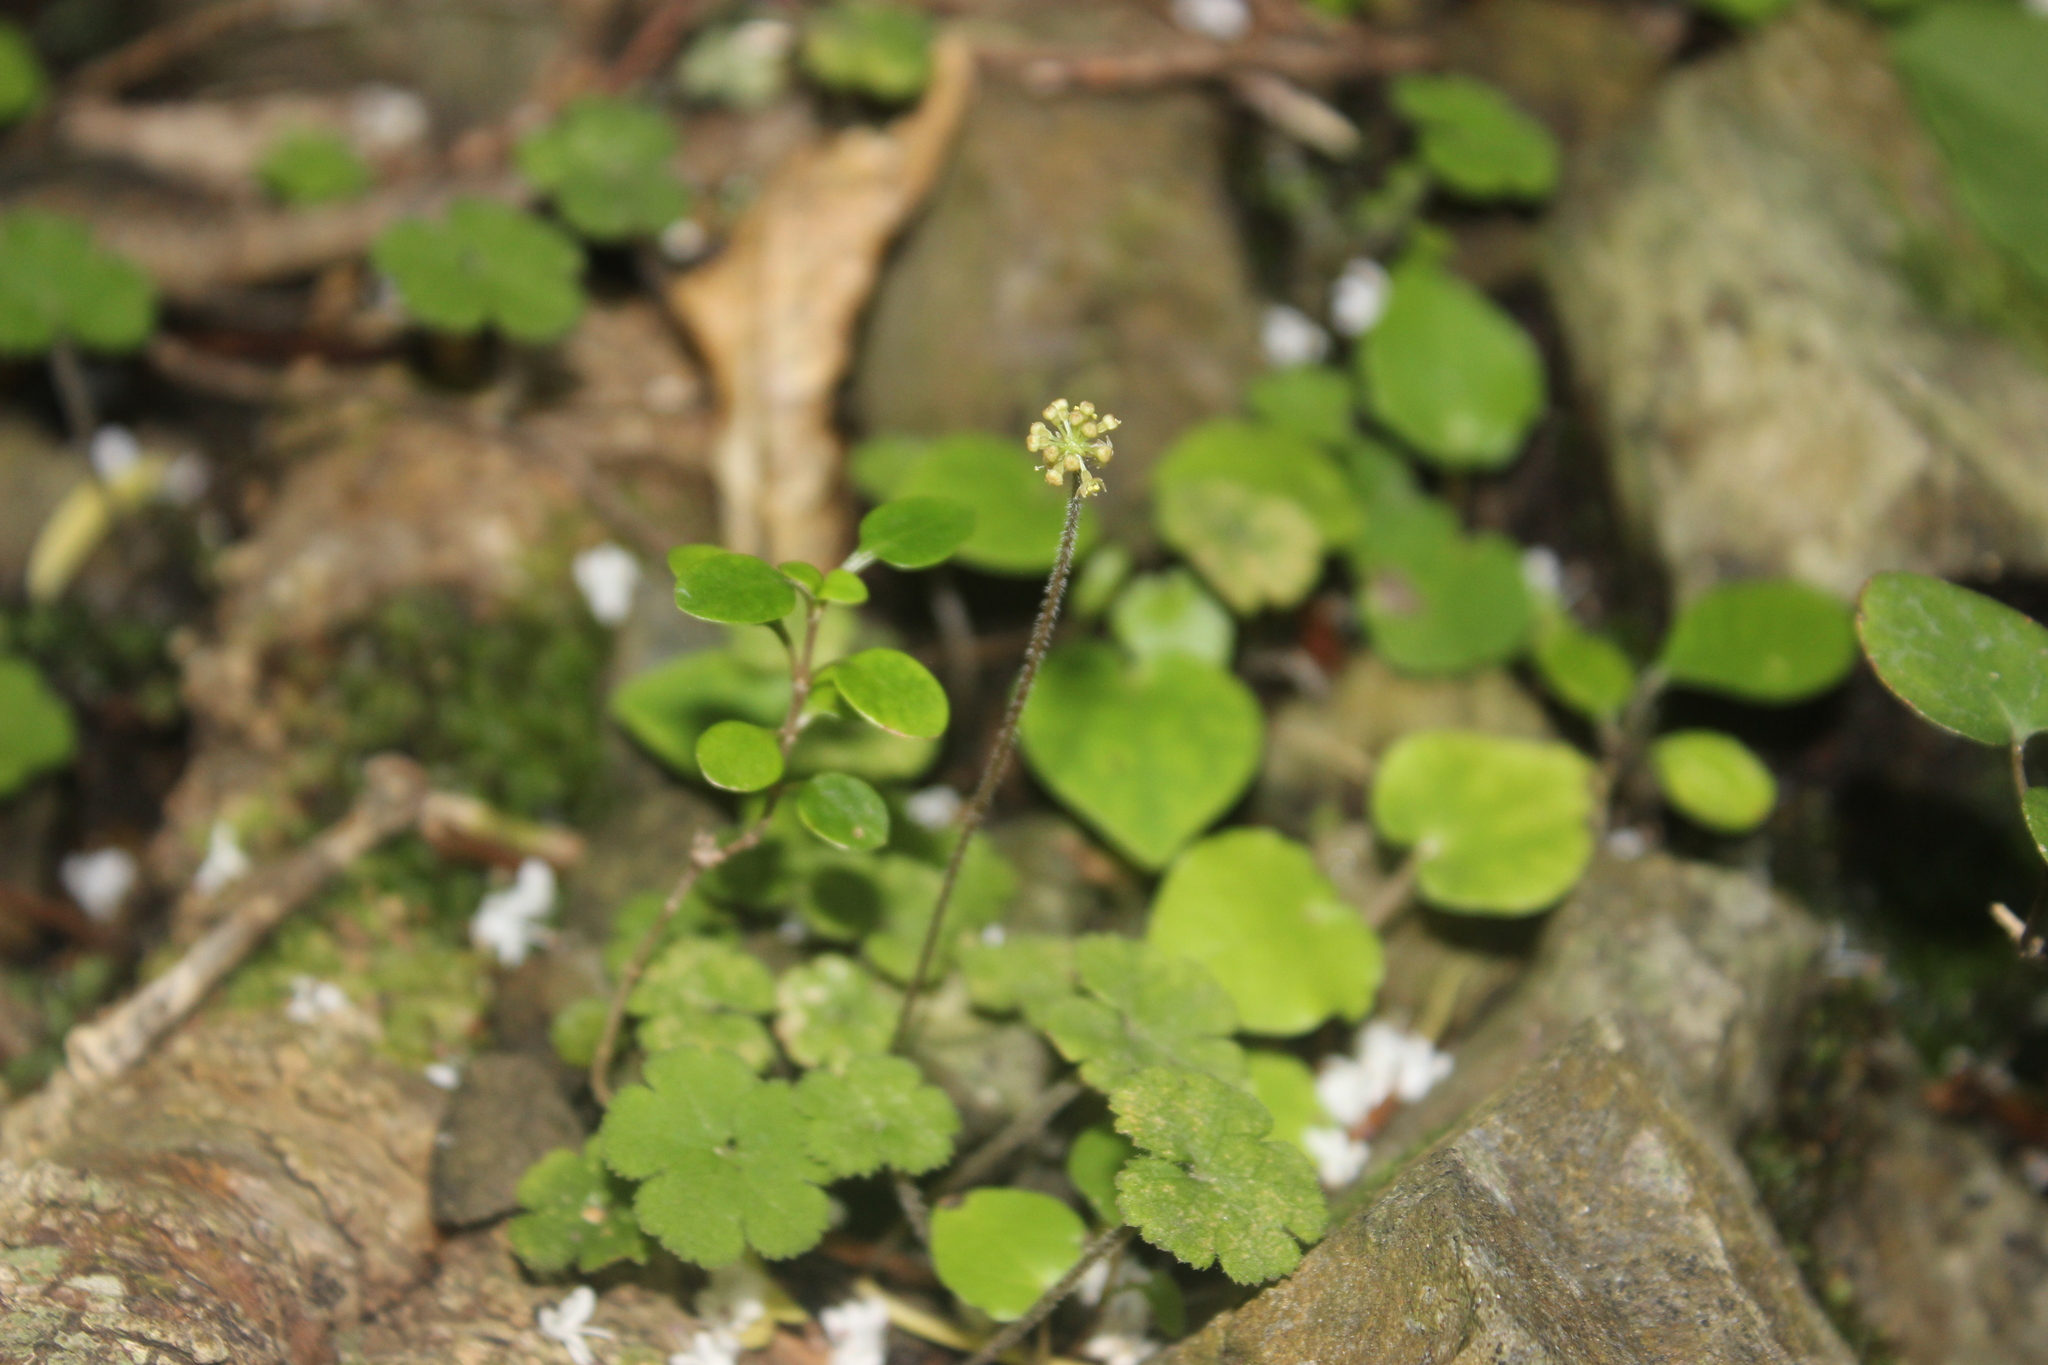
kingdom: Plantae
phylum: Tracheophyta
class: Magnoliopsida
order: Apiales
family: Araliaceae
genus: Hydrocotyle
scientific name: Hydrocotyle elongata
